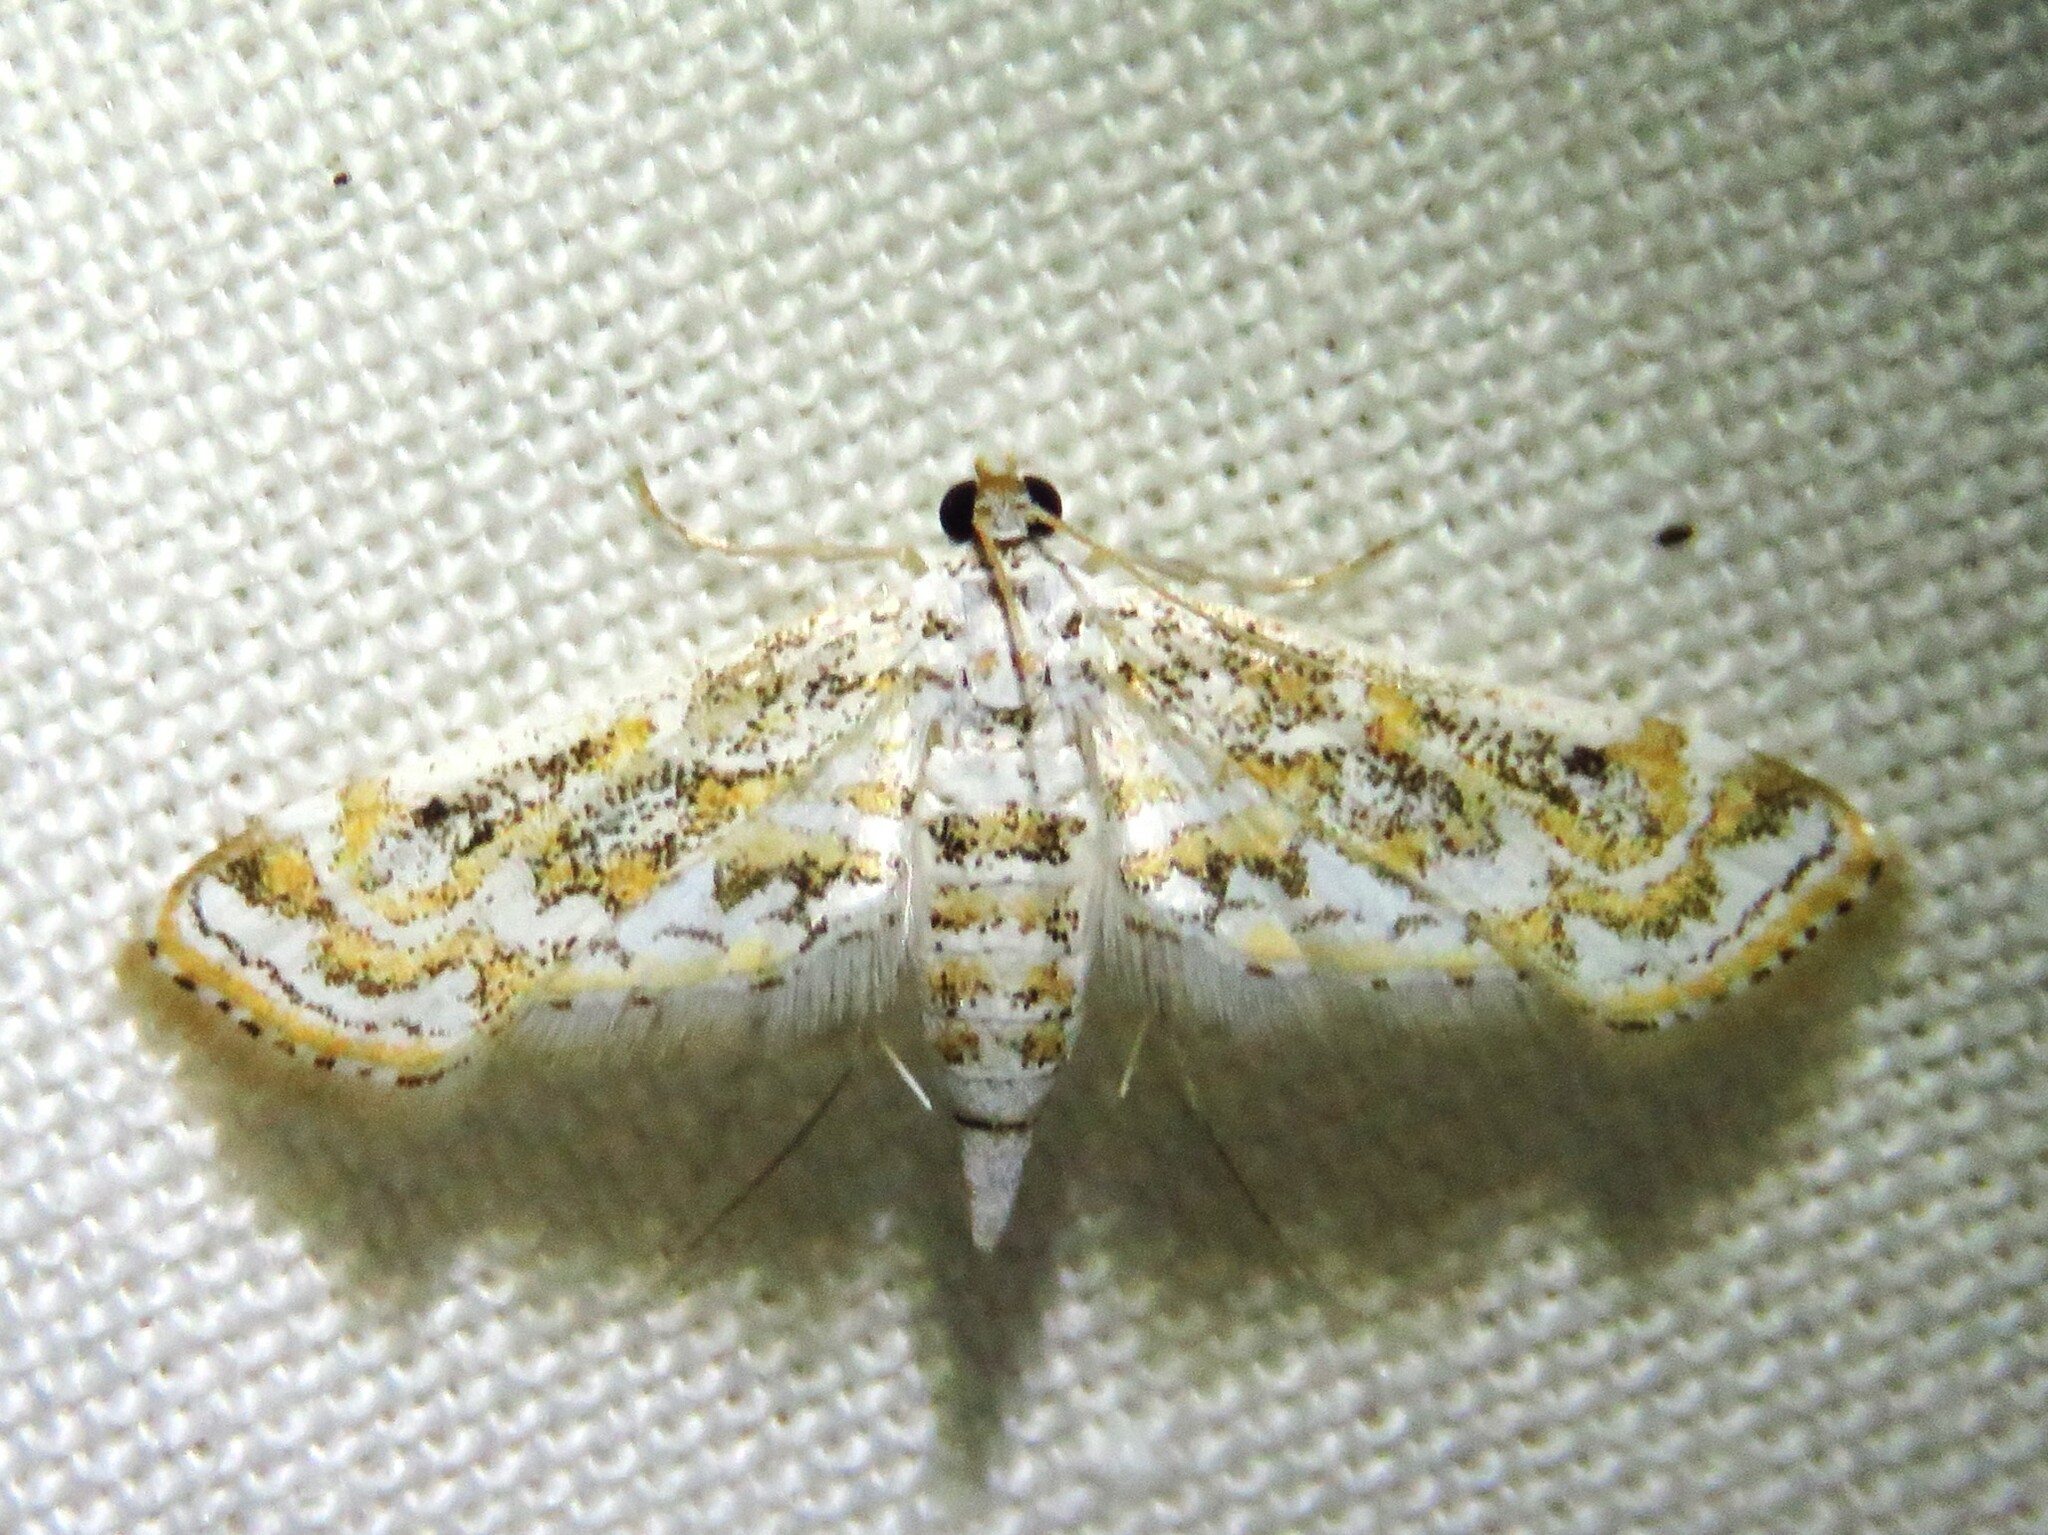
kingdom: Animalia
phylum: Arthropoda
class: Insecta
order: Lepidoptera
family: Crambidae
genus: Parapoynx
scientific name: Parapoynx diminutalis
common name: Hydrilla leafcutter
